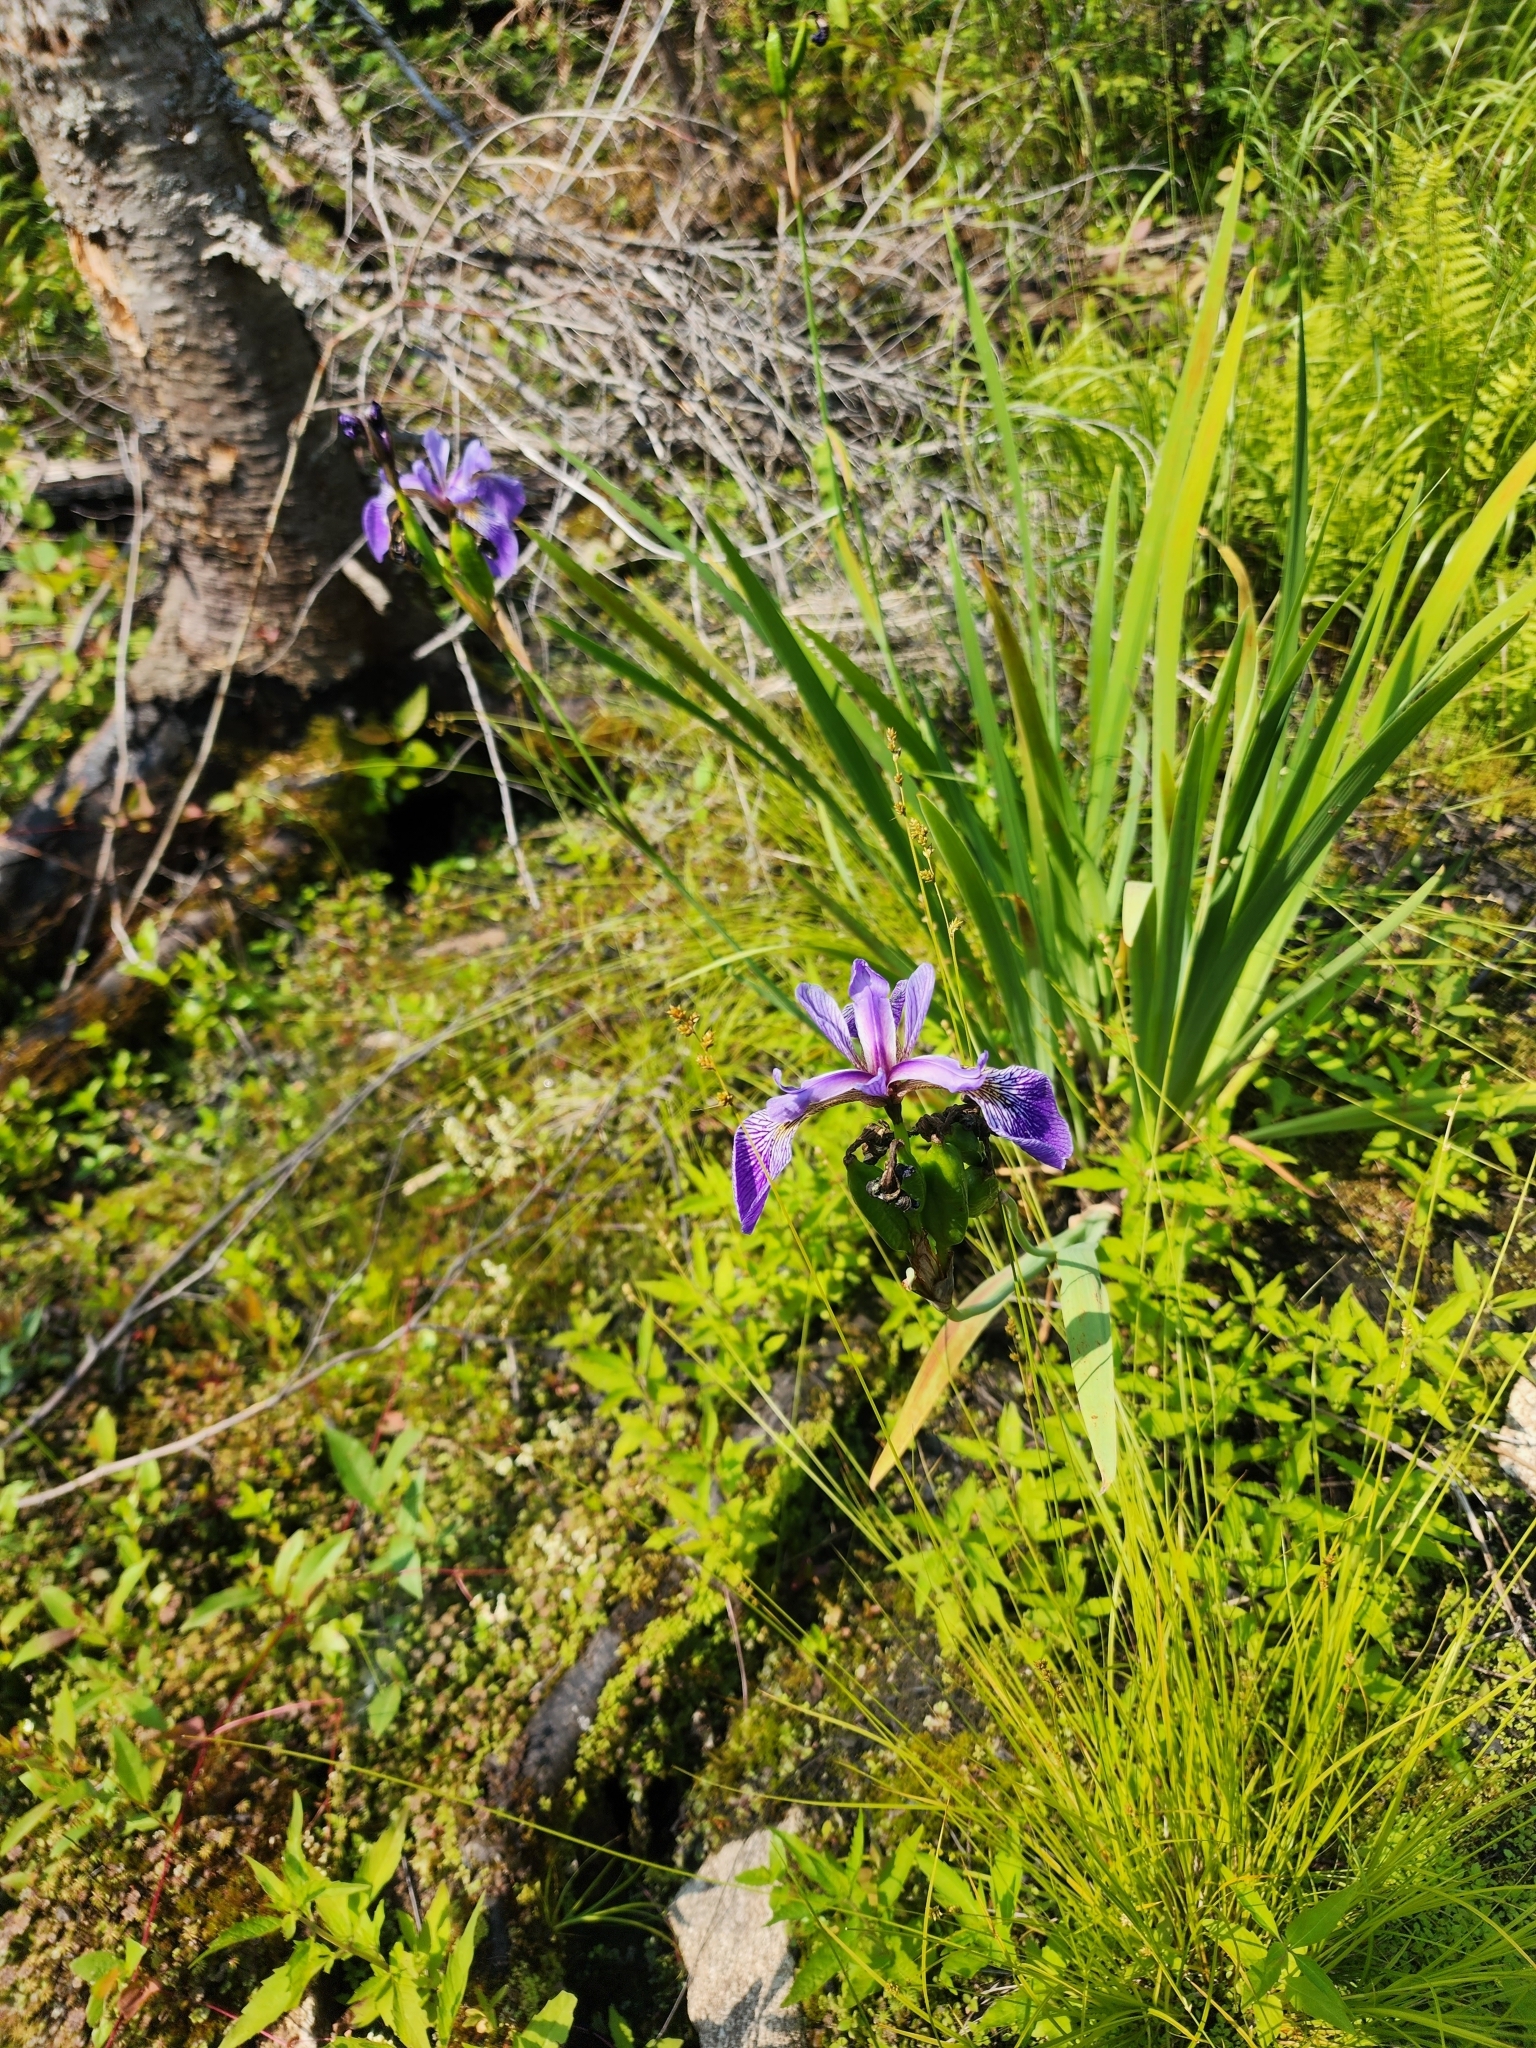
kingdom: Plantae
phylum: Tracheophyta
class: Liliopsida
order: Asparagales
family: Iridaceae
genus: Iris
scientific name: Iris versicolor
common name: Purple iris
